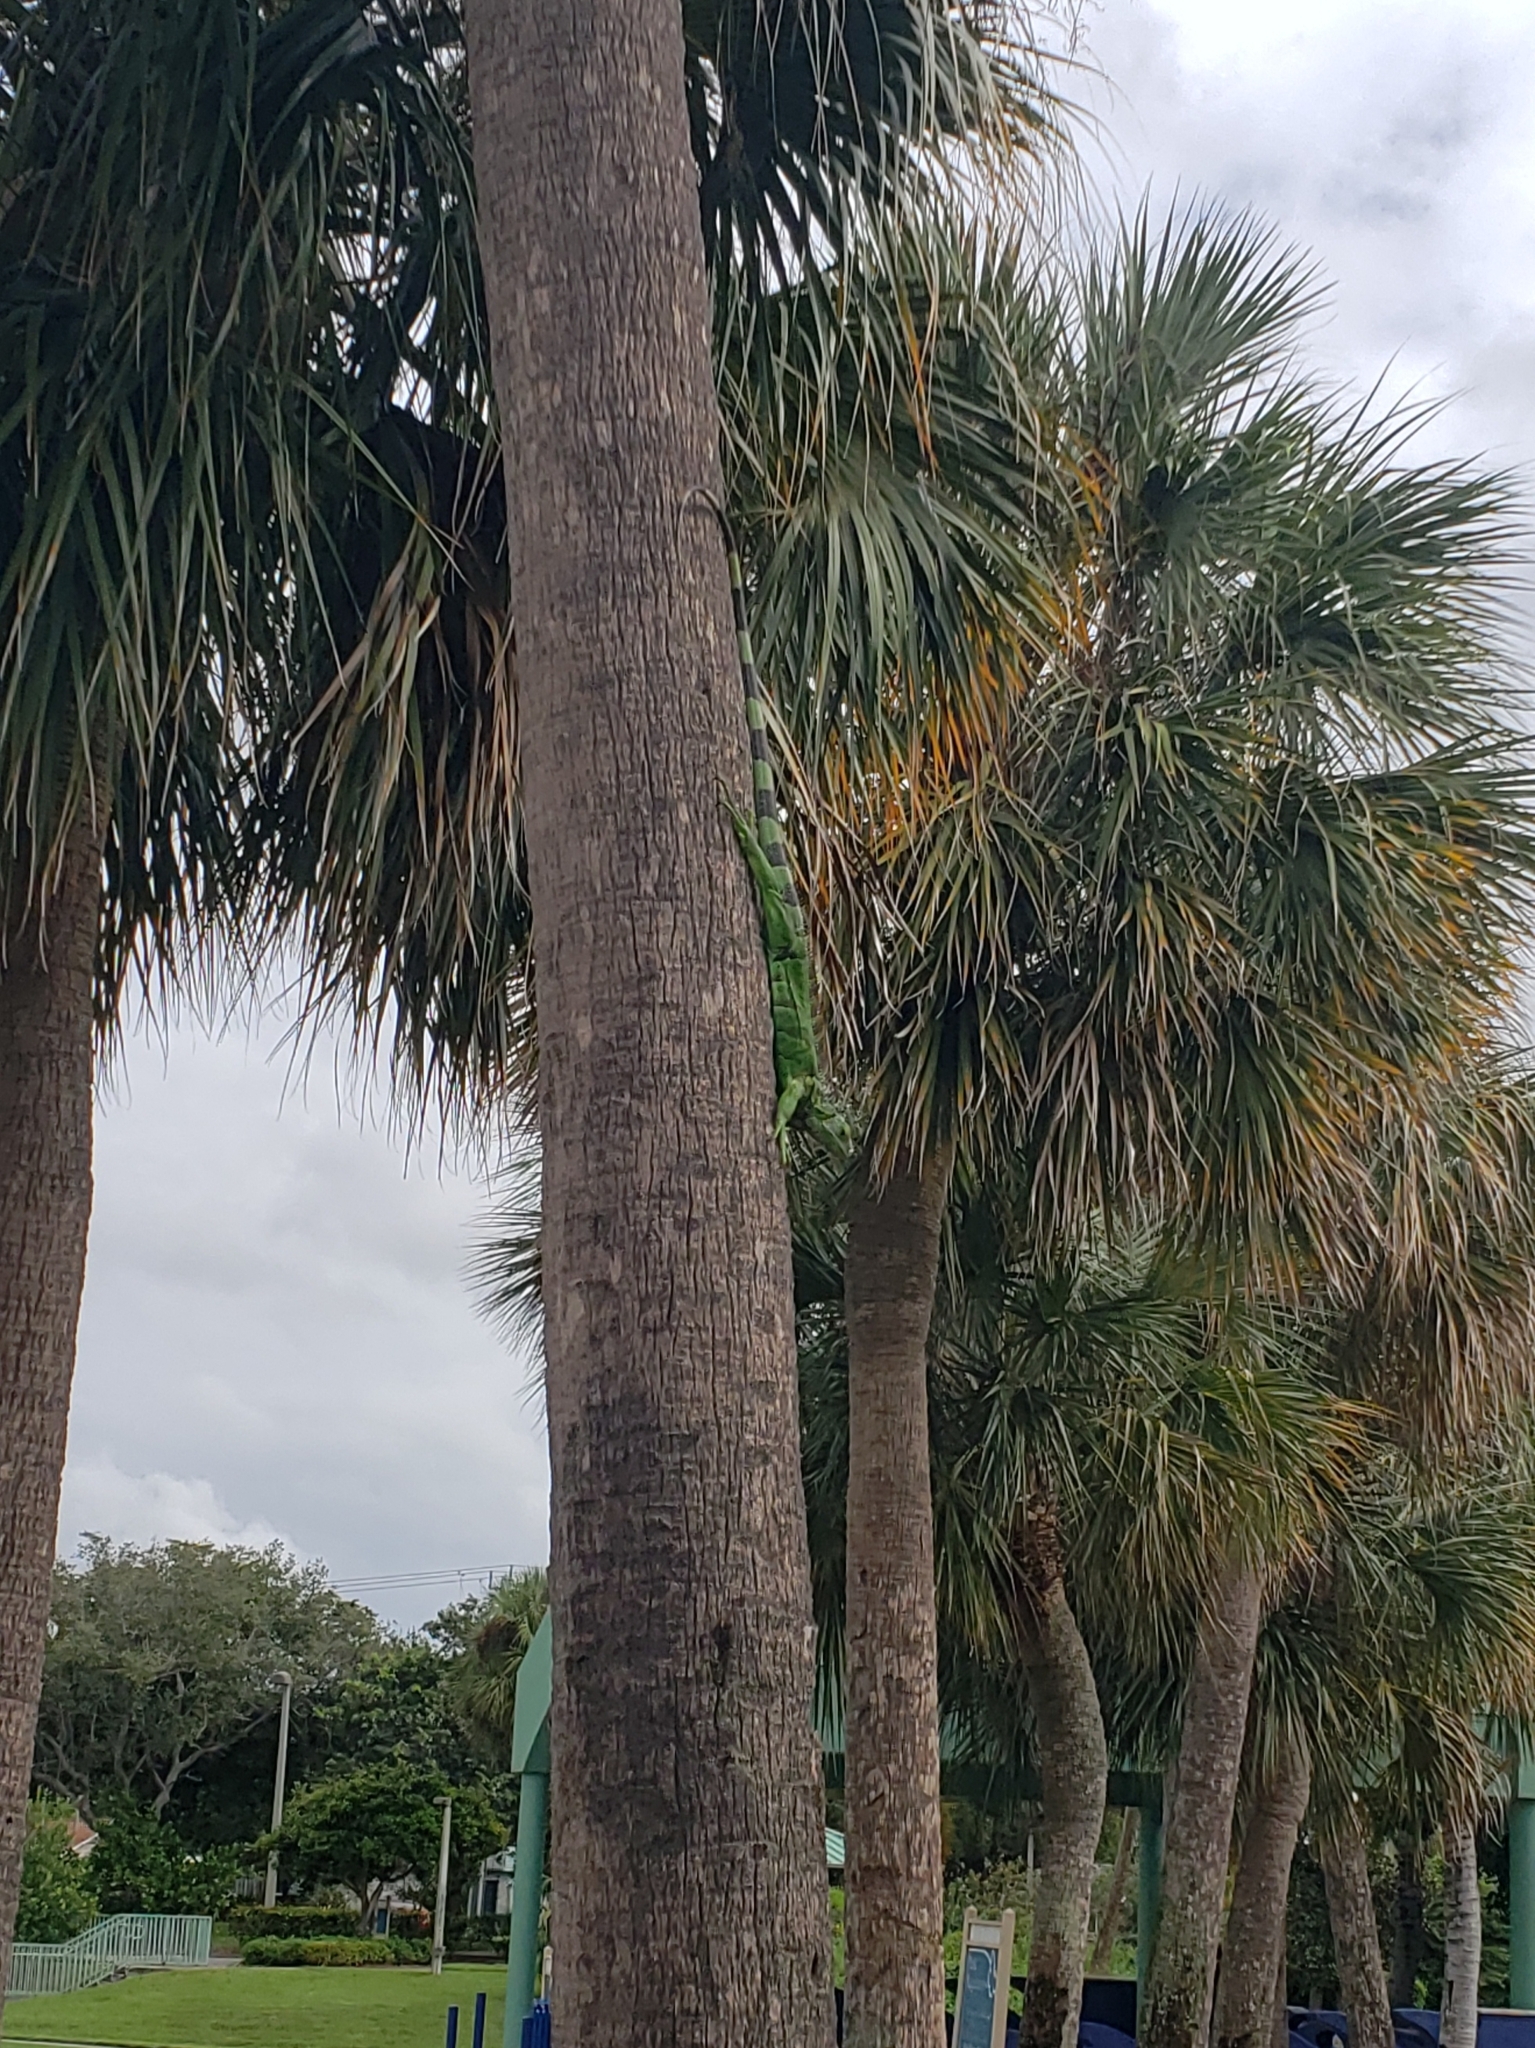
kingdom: Animalia
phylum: Chordata
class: Squamata
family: Iguanidae
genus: Iguana
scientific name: Iguana iguana
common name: Green iguana
